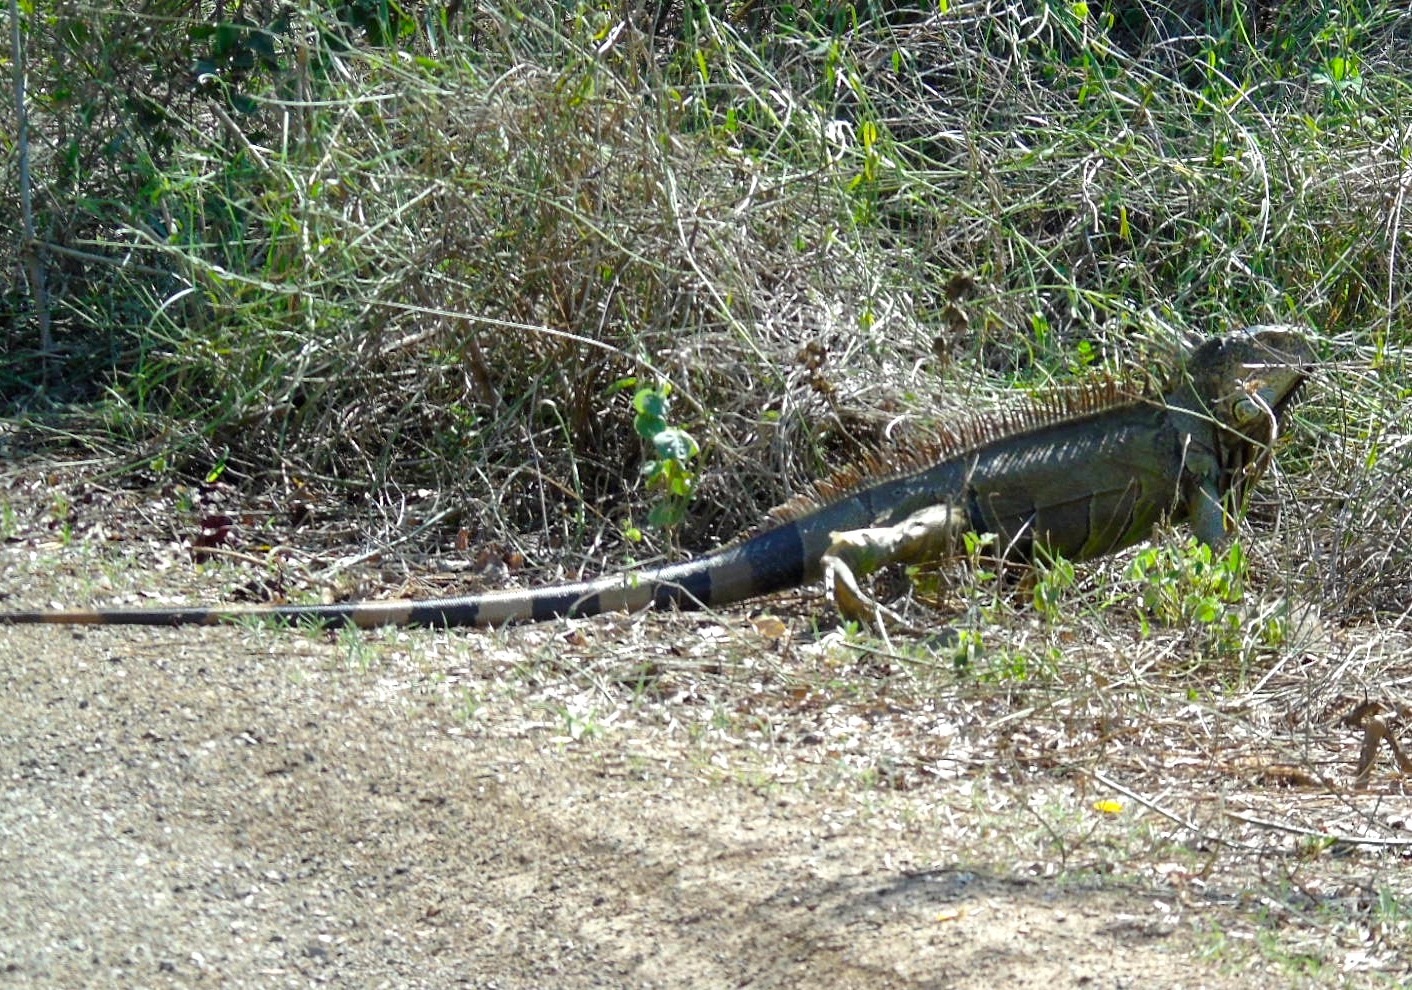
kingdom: Animalia
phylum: Chordata
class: Squamata
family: Iguanidae
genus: Iguana
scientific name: Iguana iguana
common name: Green iguana
